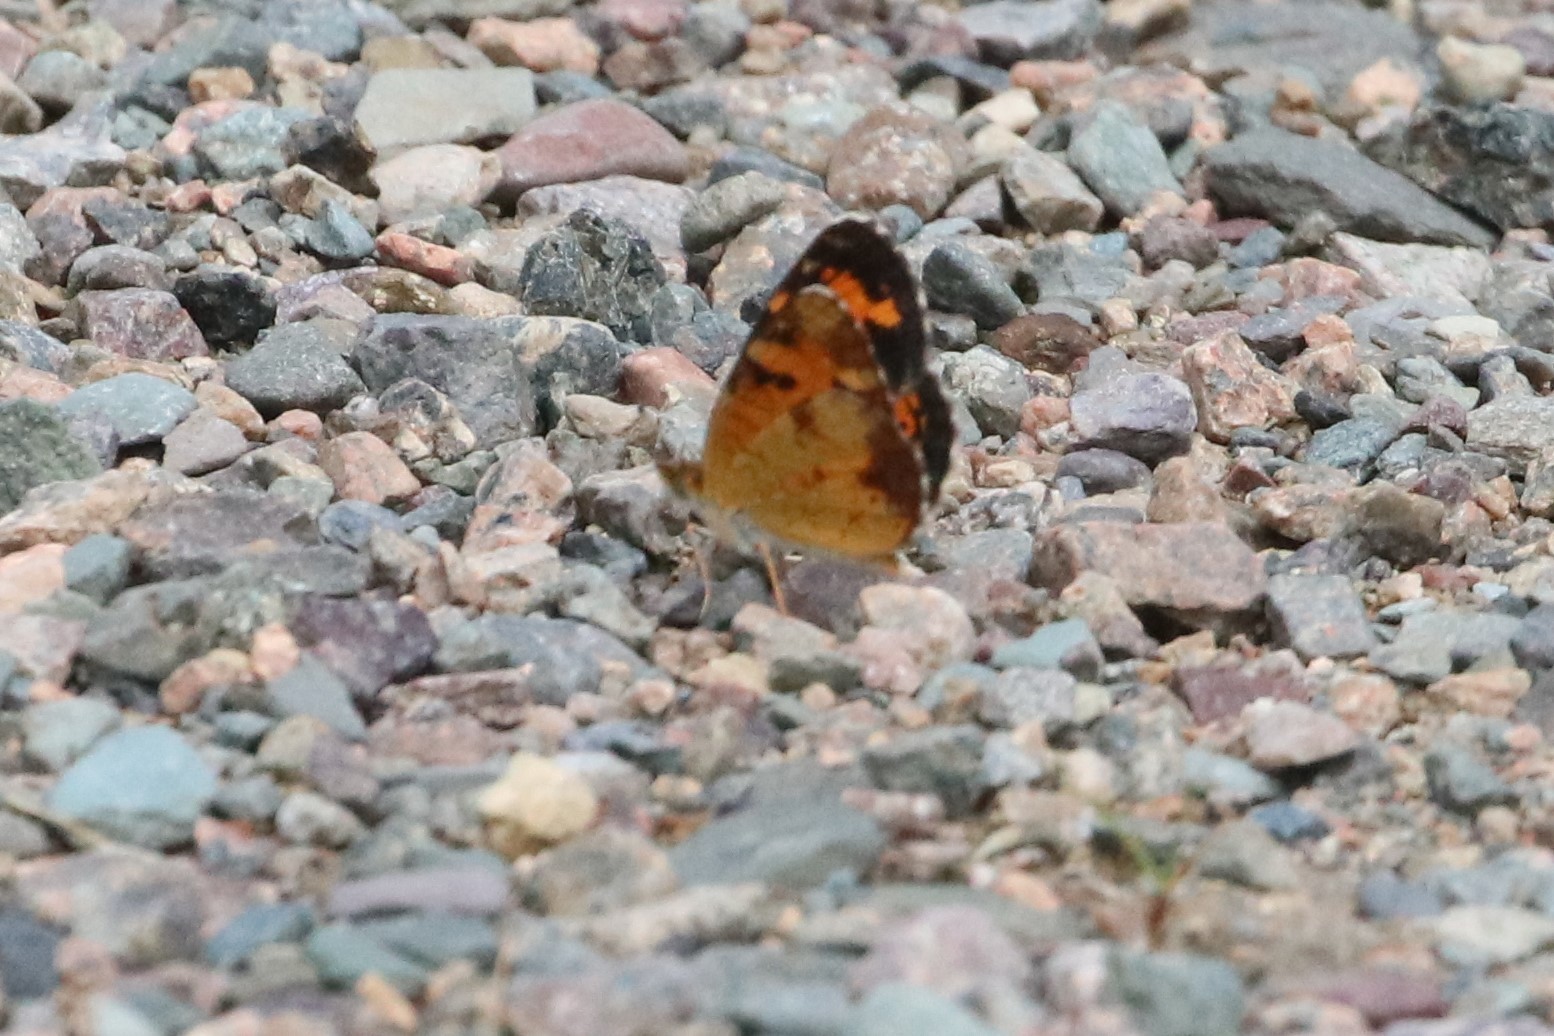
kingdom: Animalia
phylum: Arthropoda
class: Insecta
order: Lepidoptera
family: Nymphalidae
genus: Phyciodes
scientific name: Phyciodes tharos
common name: Pearl crescent
